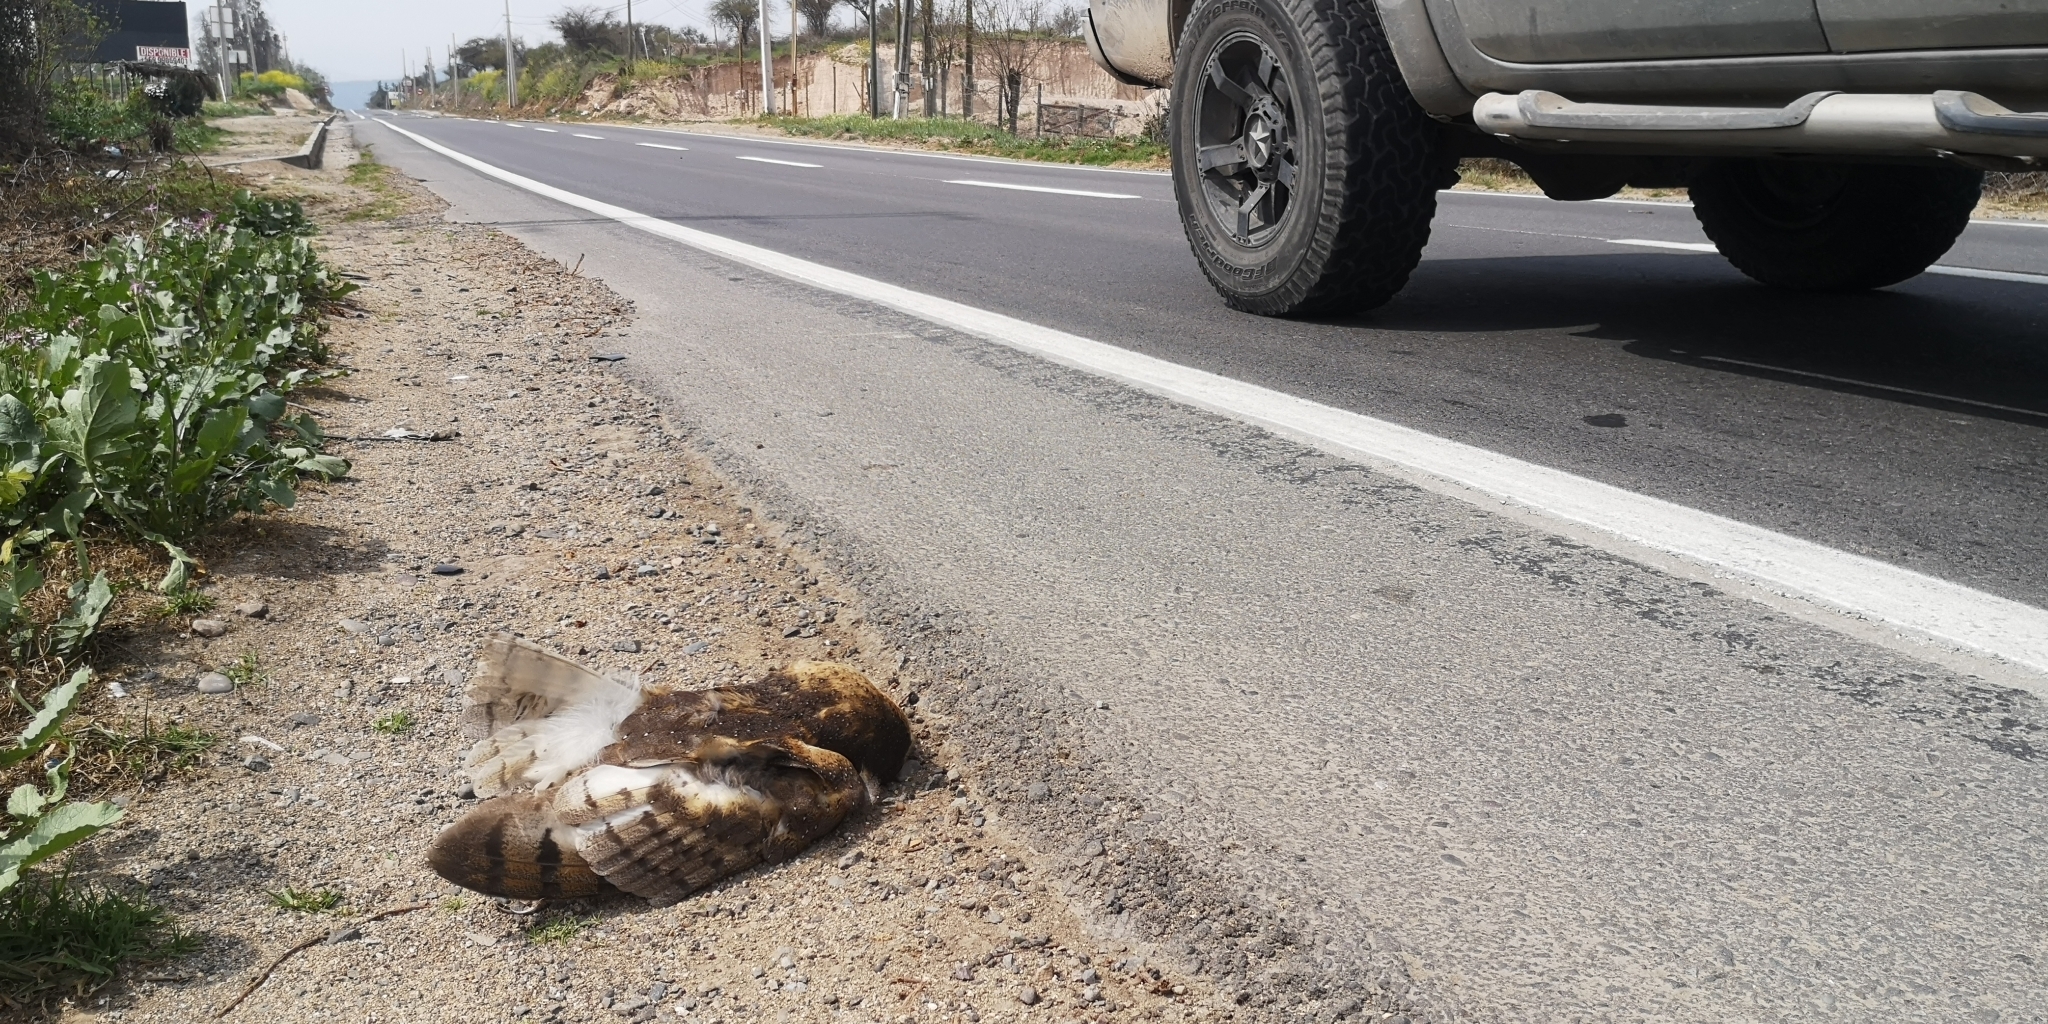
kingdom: Animalia
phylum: Chordata
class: Aves
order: Strigiformes
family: Tytonidae
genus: Tyto
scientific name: Tyto alba
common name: Barn owl
